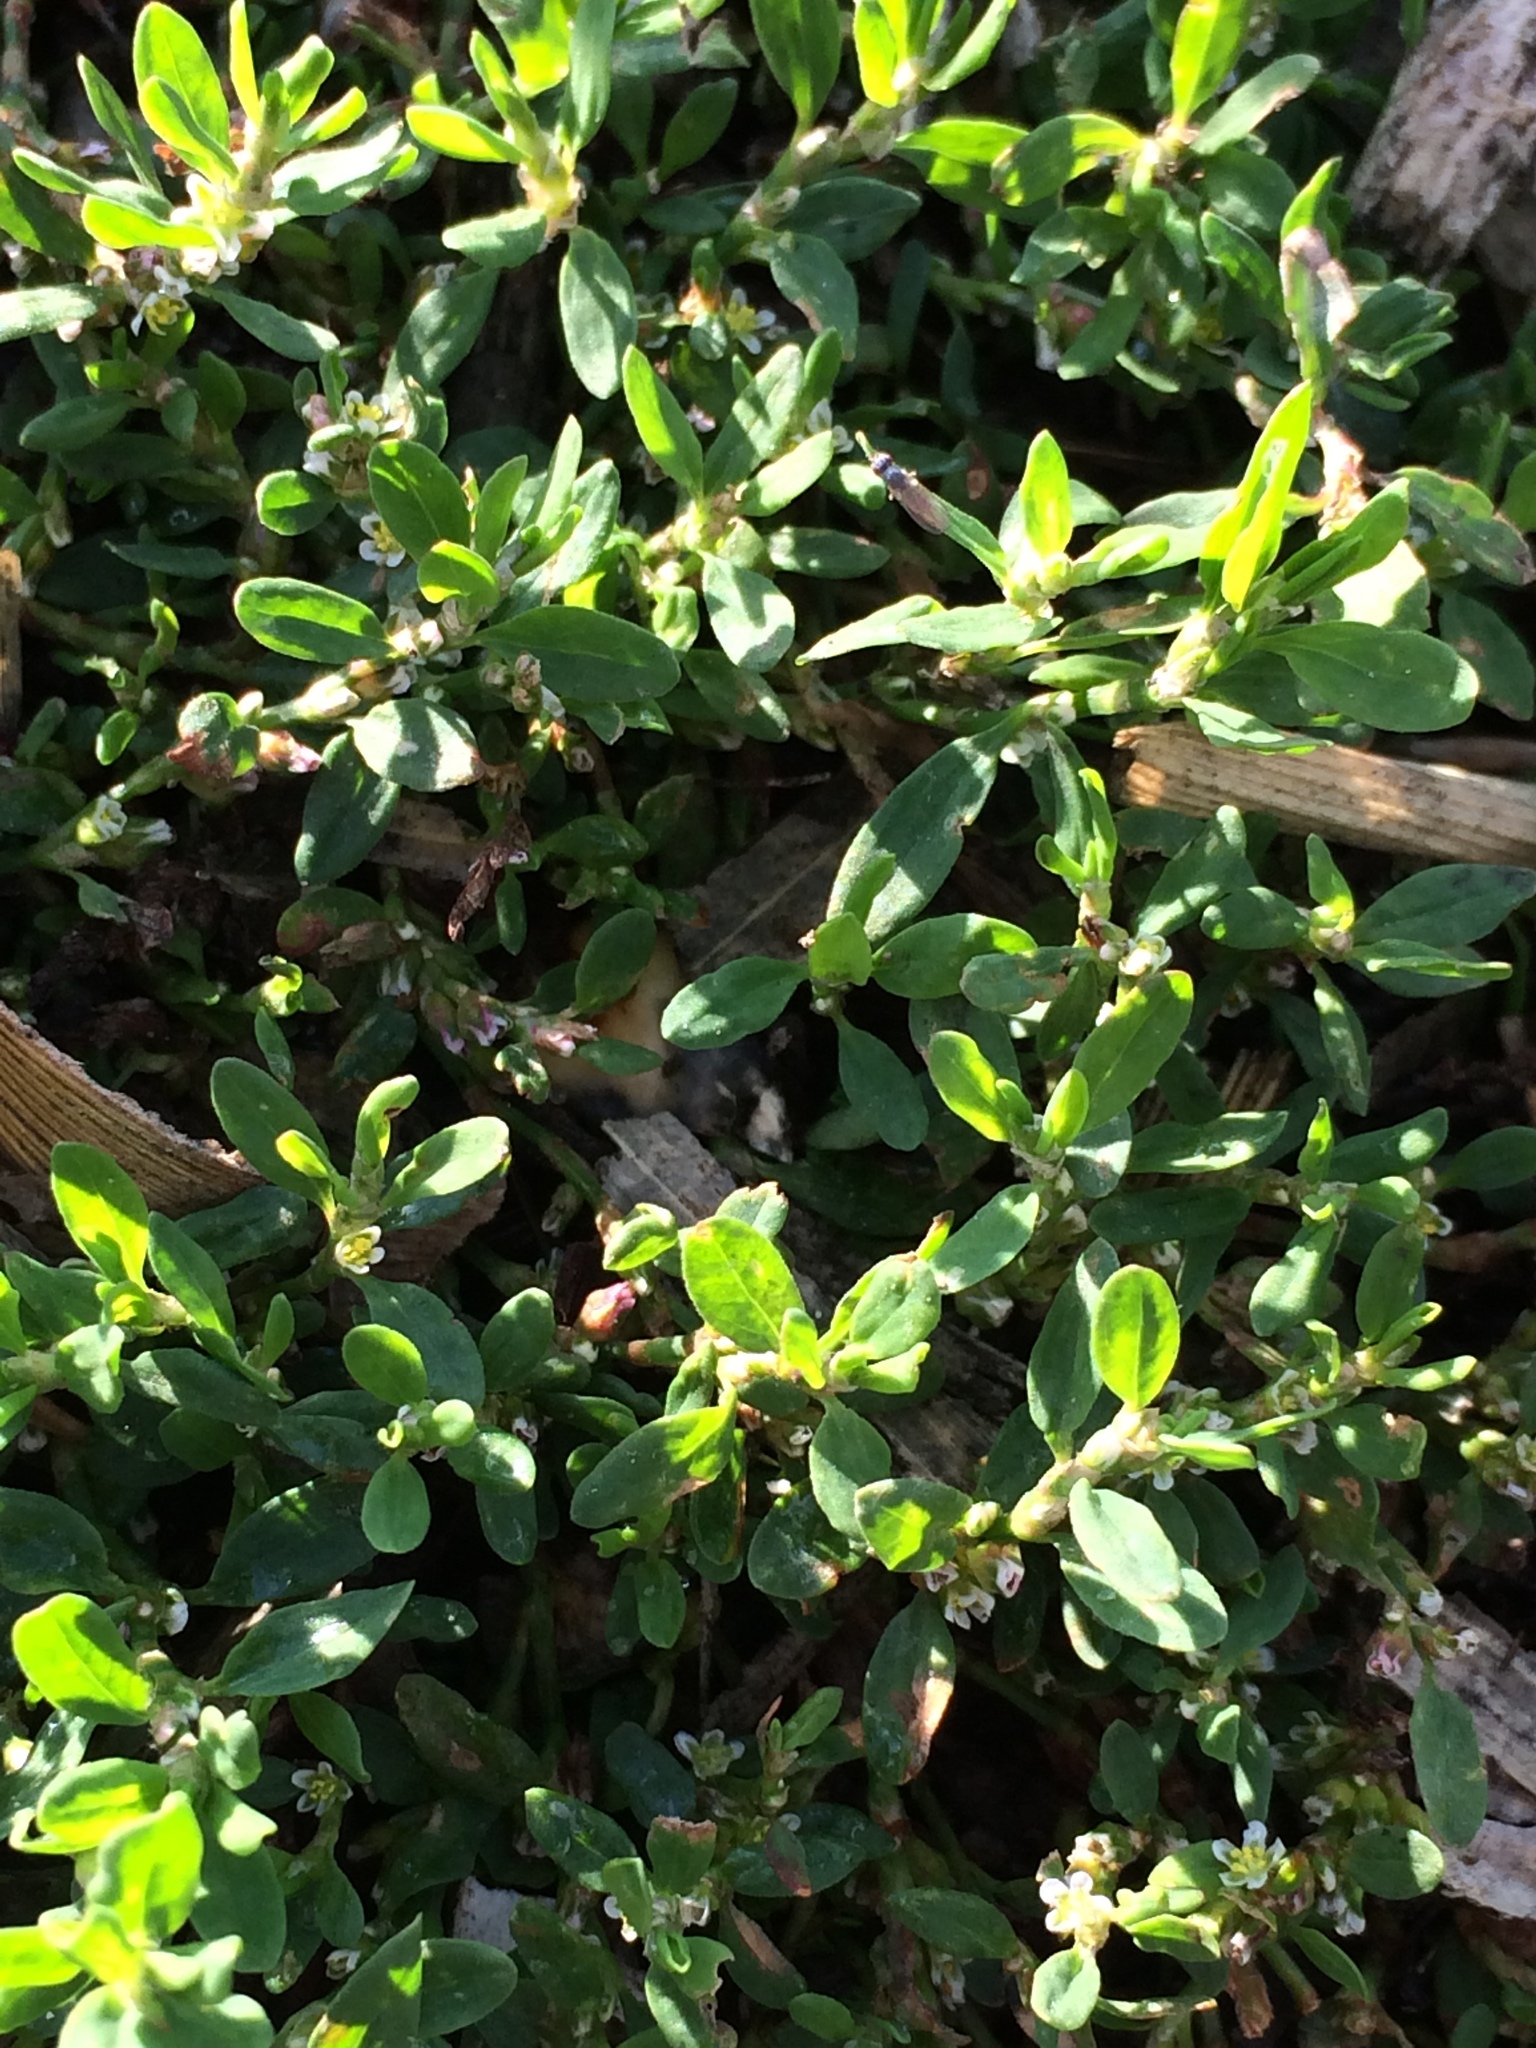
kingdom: Plantae
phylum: Tracheophyta
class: Magnoliopsida
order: Caryophyllales
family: Polygonaceae
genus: Polygonum
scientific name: Polygonum aviculare
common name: Prostrate knotweed
